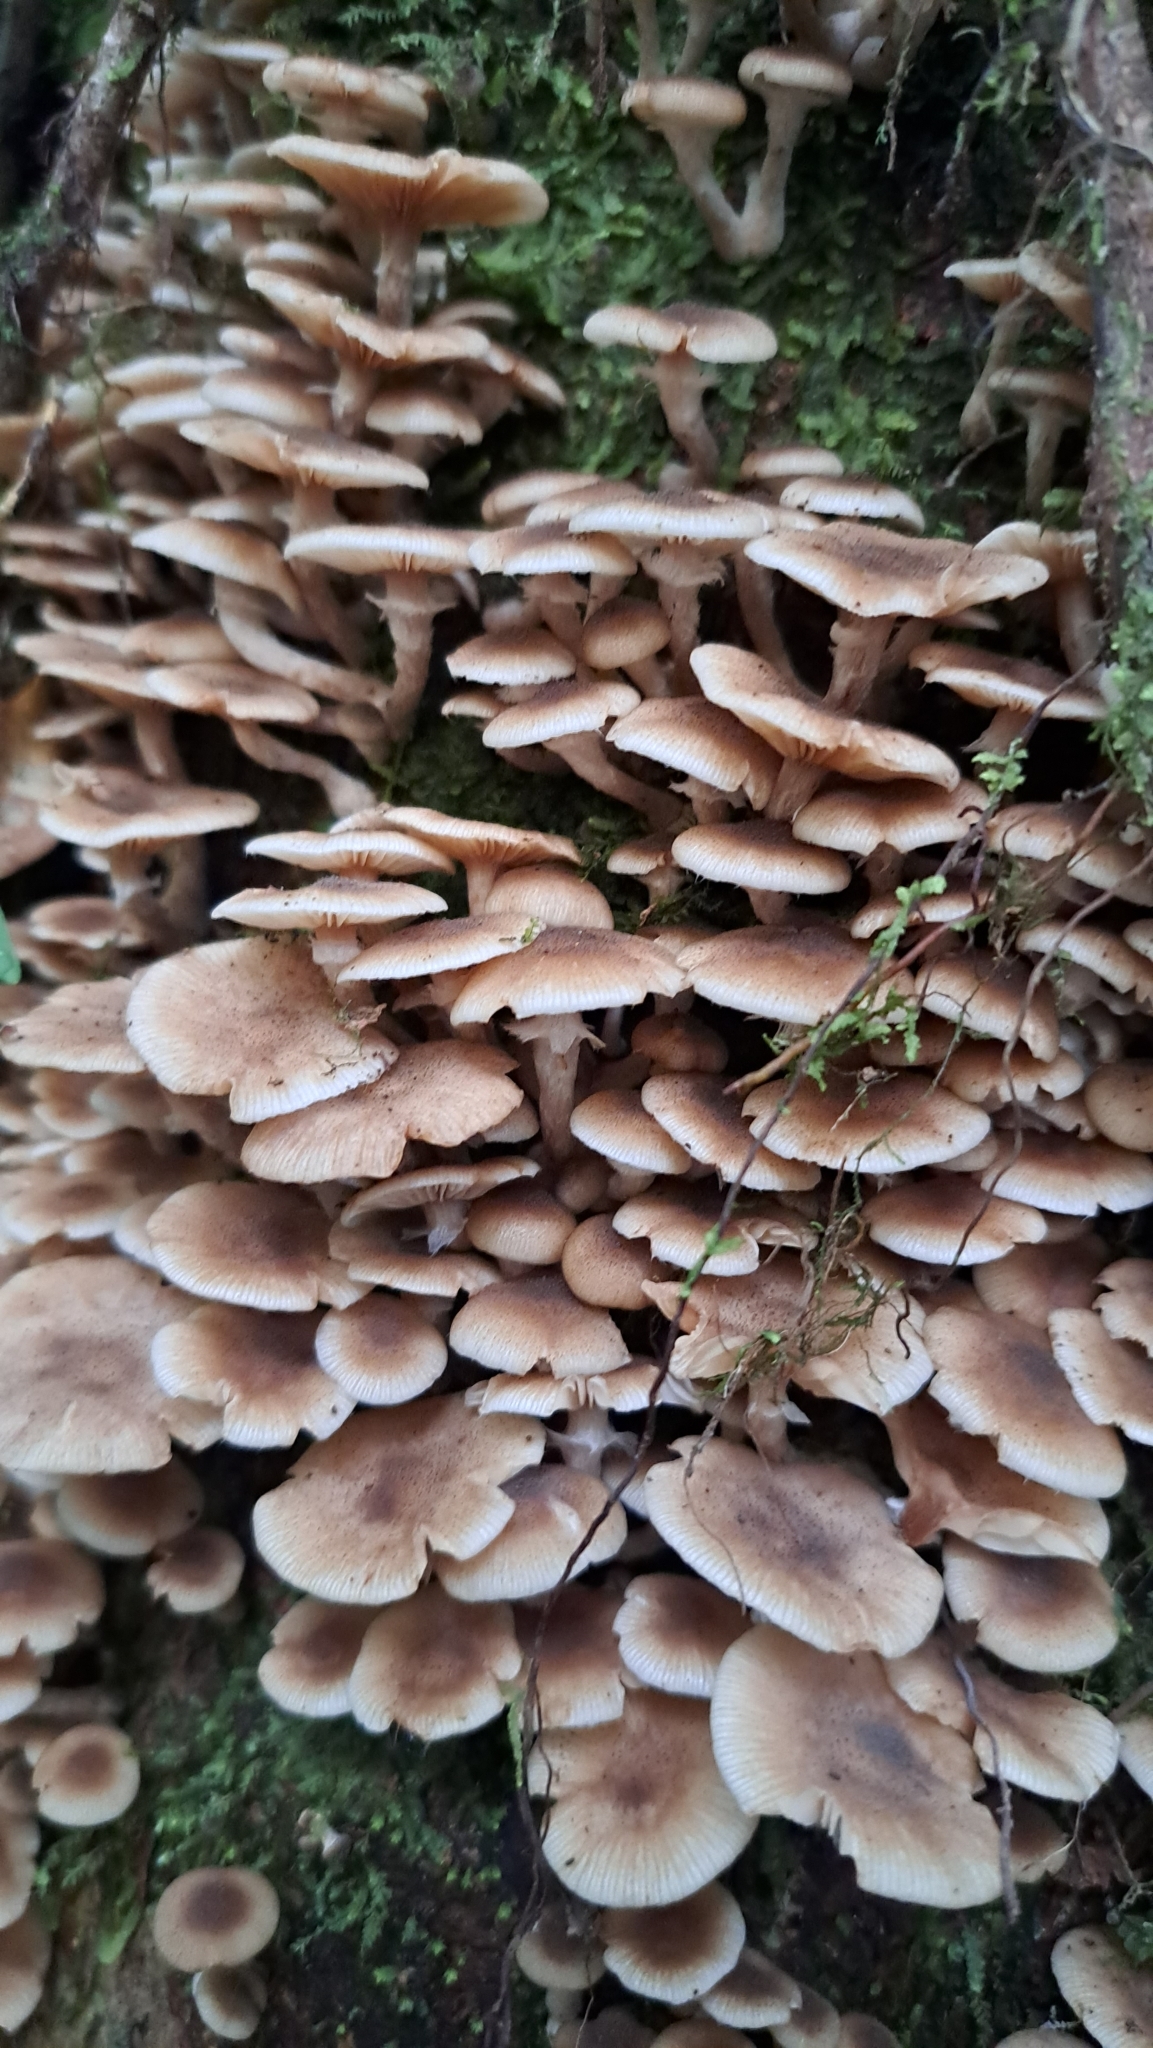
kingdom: Fungi
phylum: Basidiomycota
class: Agaricomycetes
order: Agaricales
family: Physalacriaceae
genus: Armillaria
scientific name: Armillaria puiggarii
